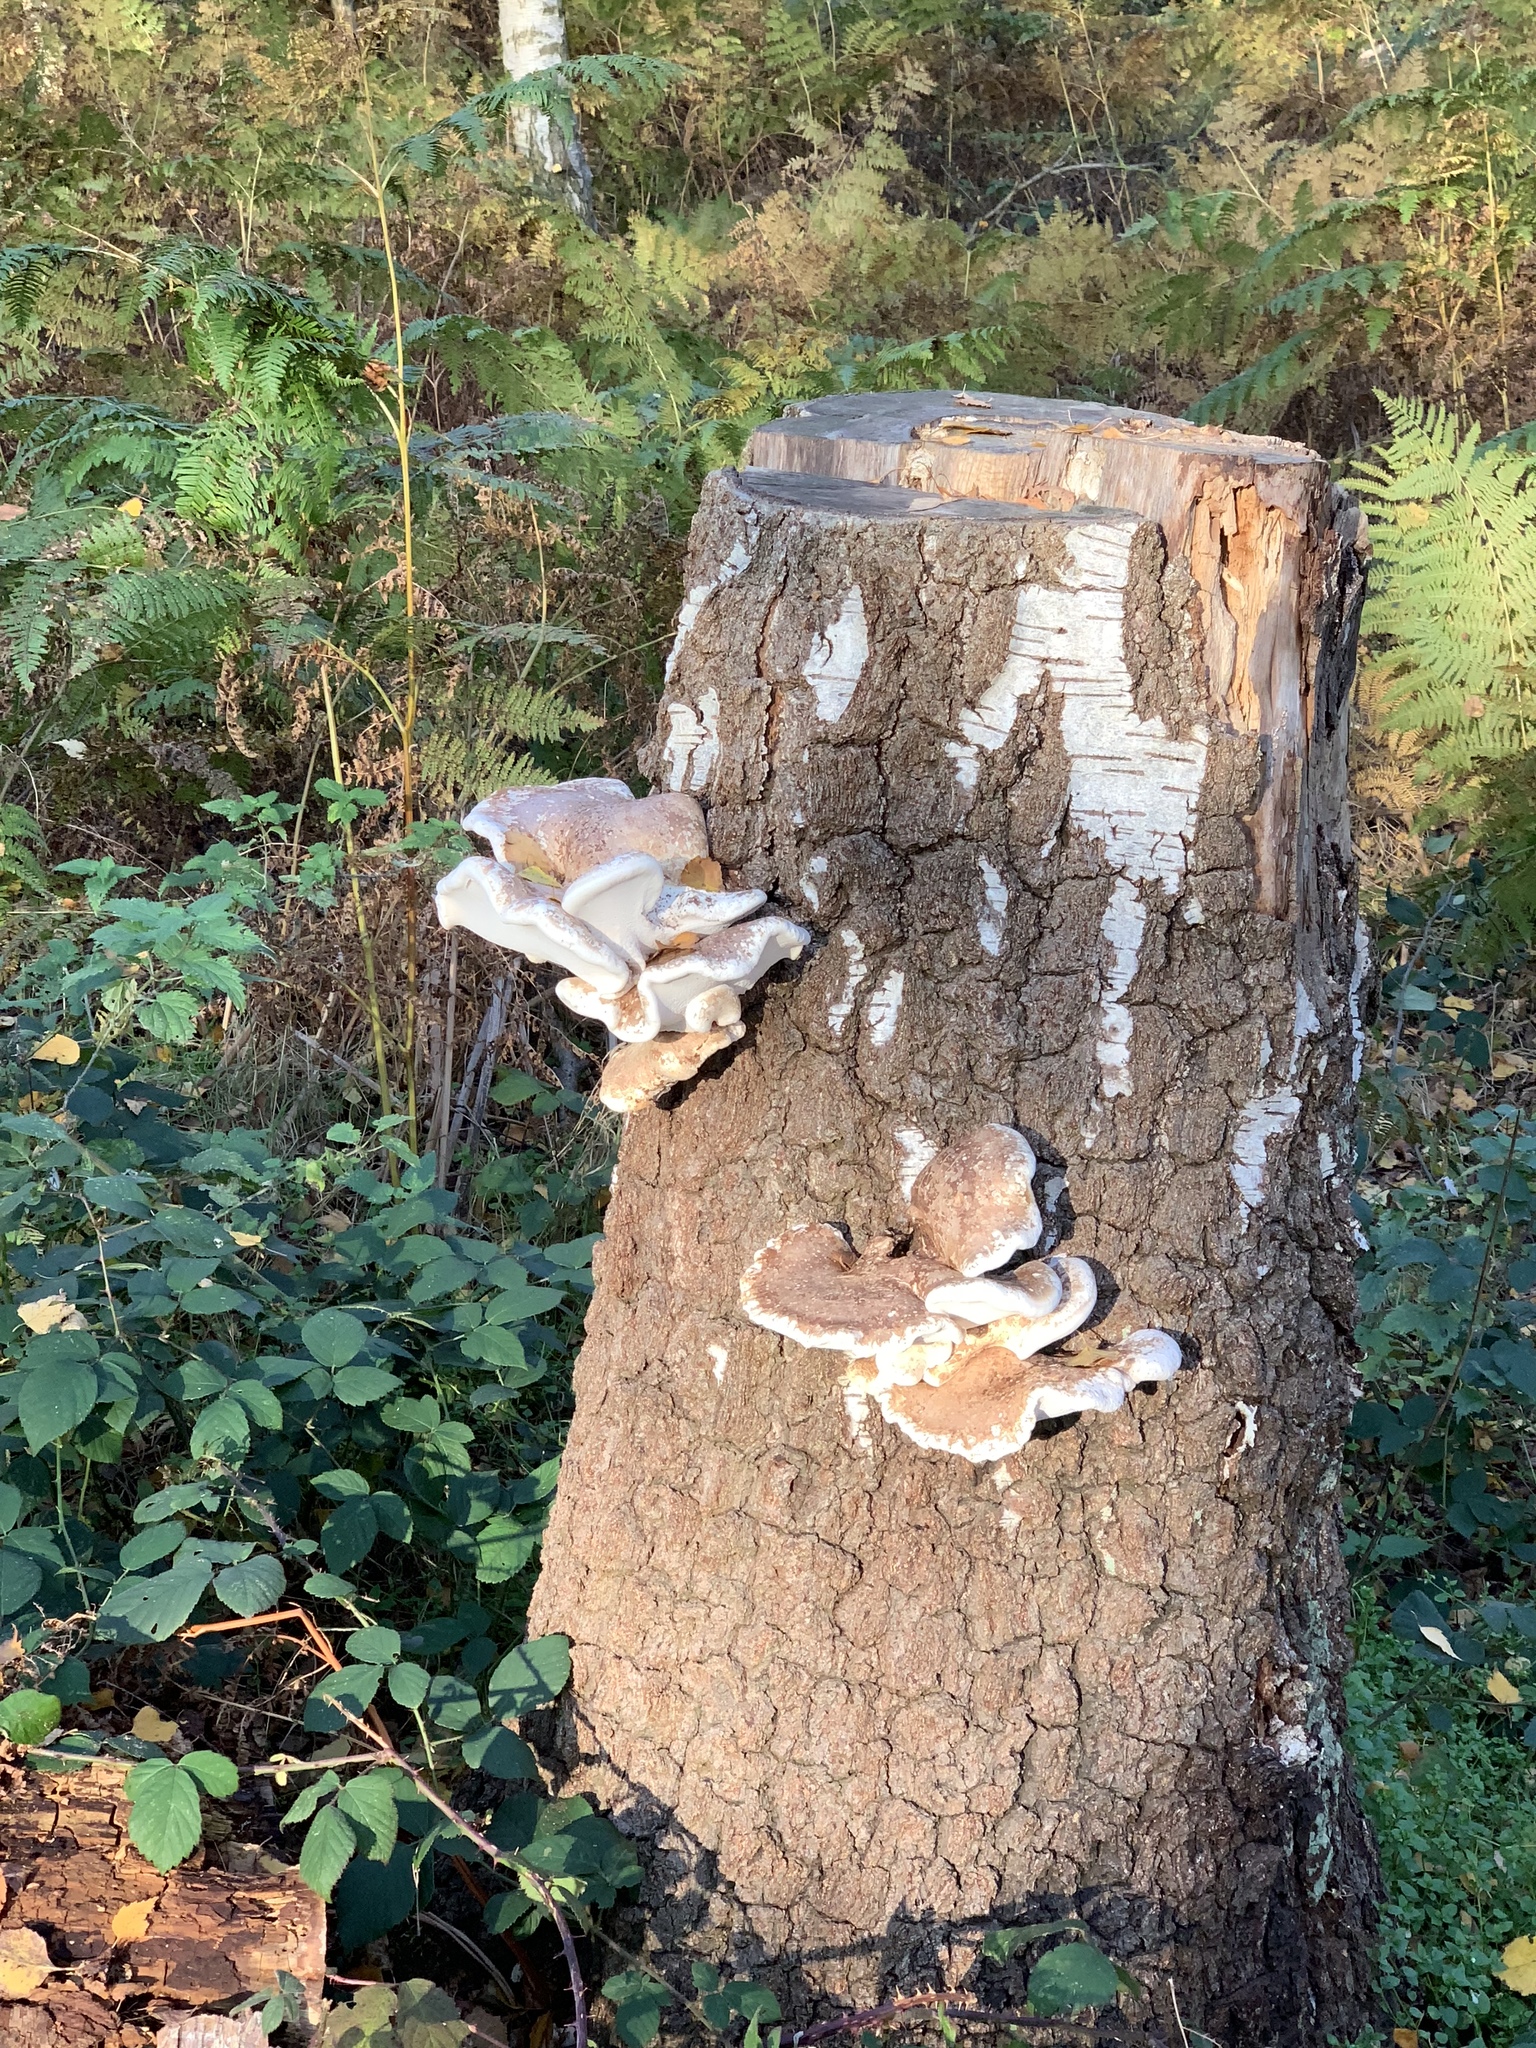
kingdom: Fungi
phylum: Basidiomycota
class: Agaricomycetes
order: Polyporales
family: Fomitopsidaceae
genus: Fomitopsis
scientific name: Fomitopsis betulina
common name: Birch polypore
